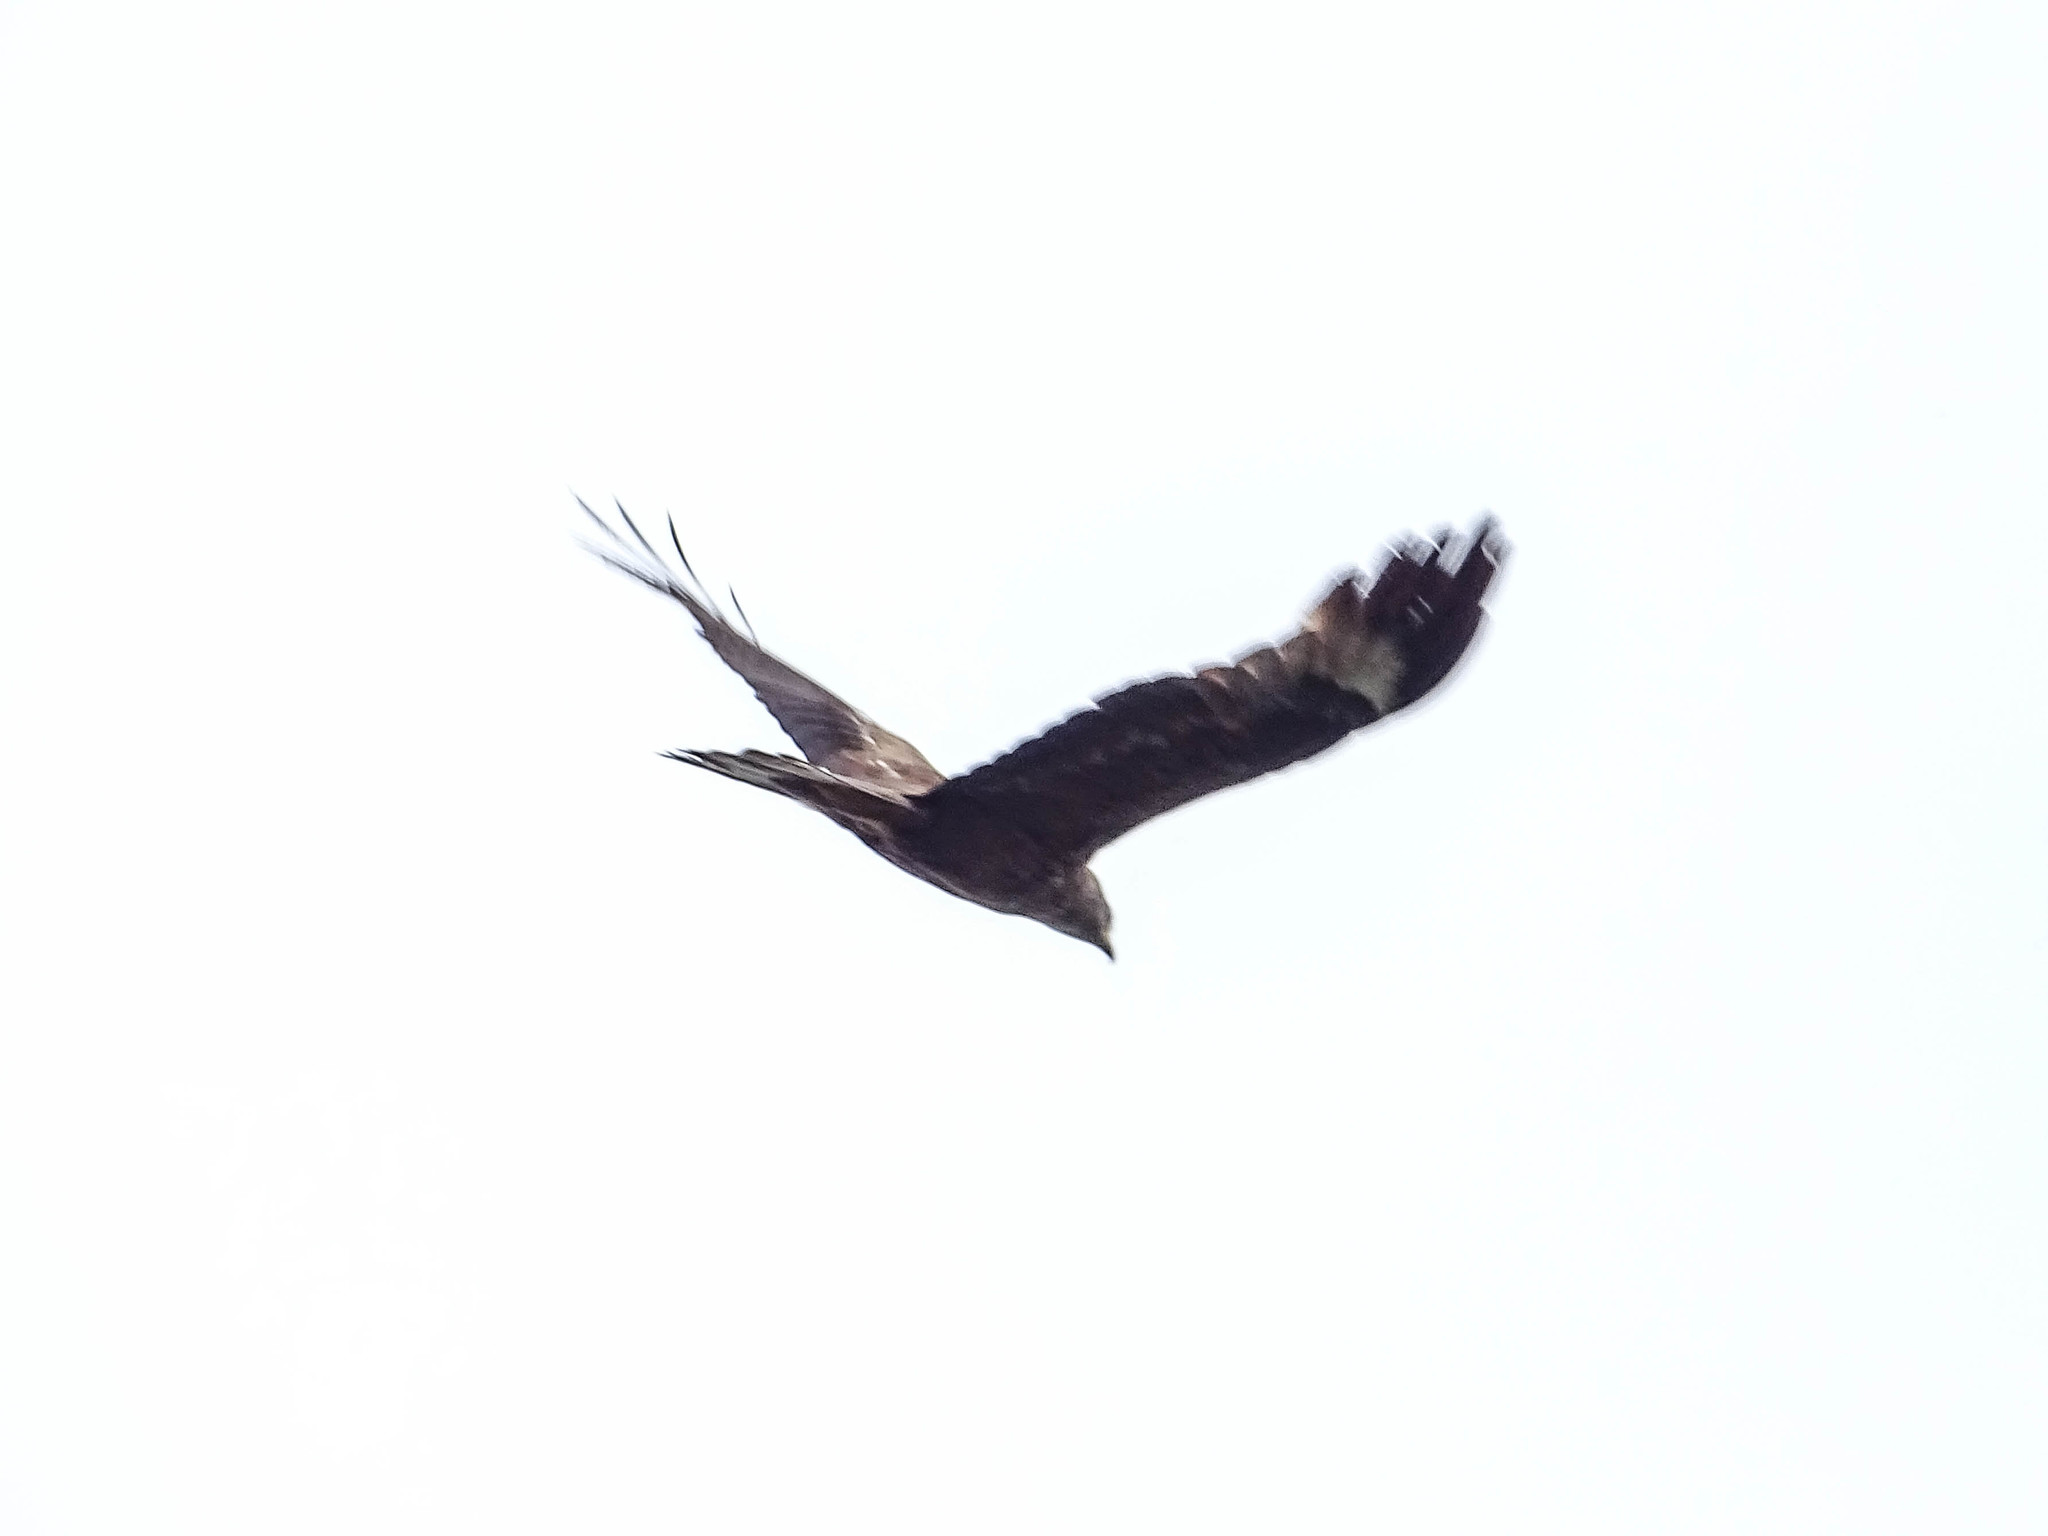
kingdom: Animalia
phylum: Chordata
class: Aves
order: Accipitriformes
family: Accipitridae
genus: Milvus
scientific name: Milvus migrans
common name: Black kite
